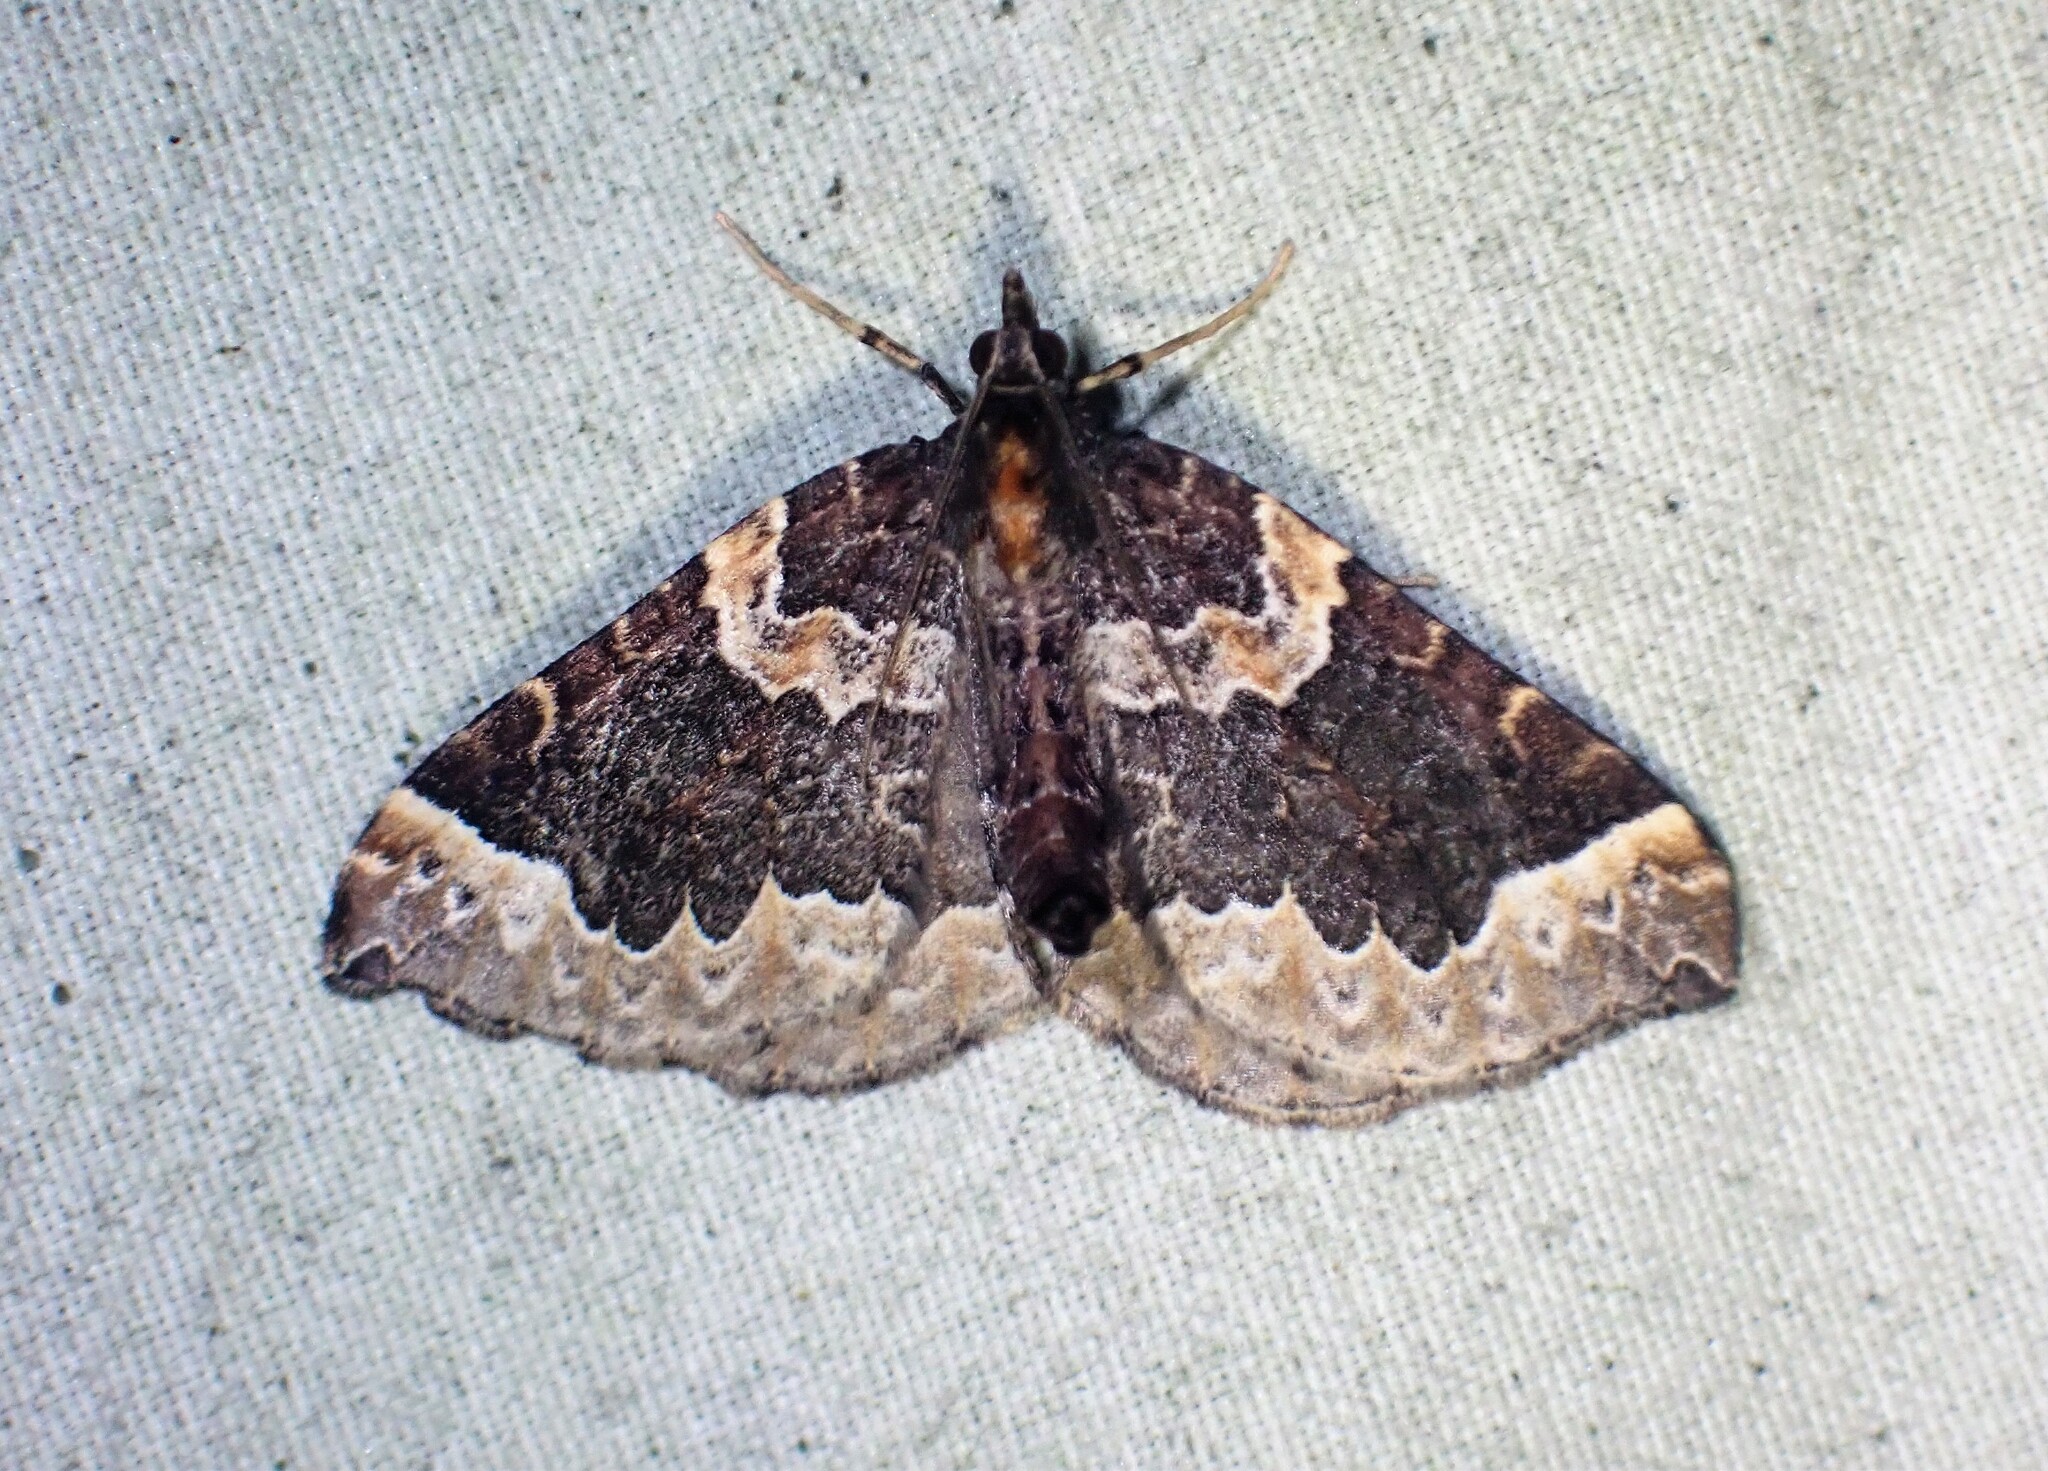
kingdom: Animalia
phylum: Arthropoda
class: Insecta
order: Lepidoptera
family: Geometridae
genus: Eulithis
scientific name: Eulithis flavibrunneata
